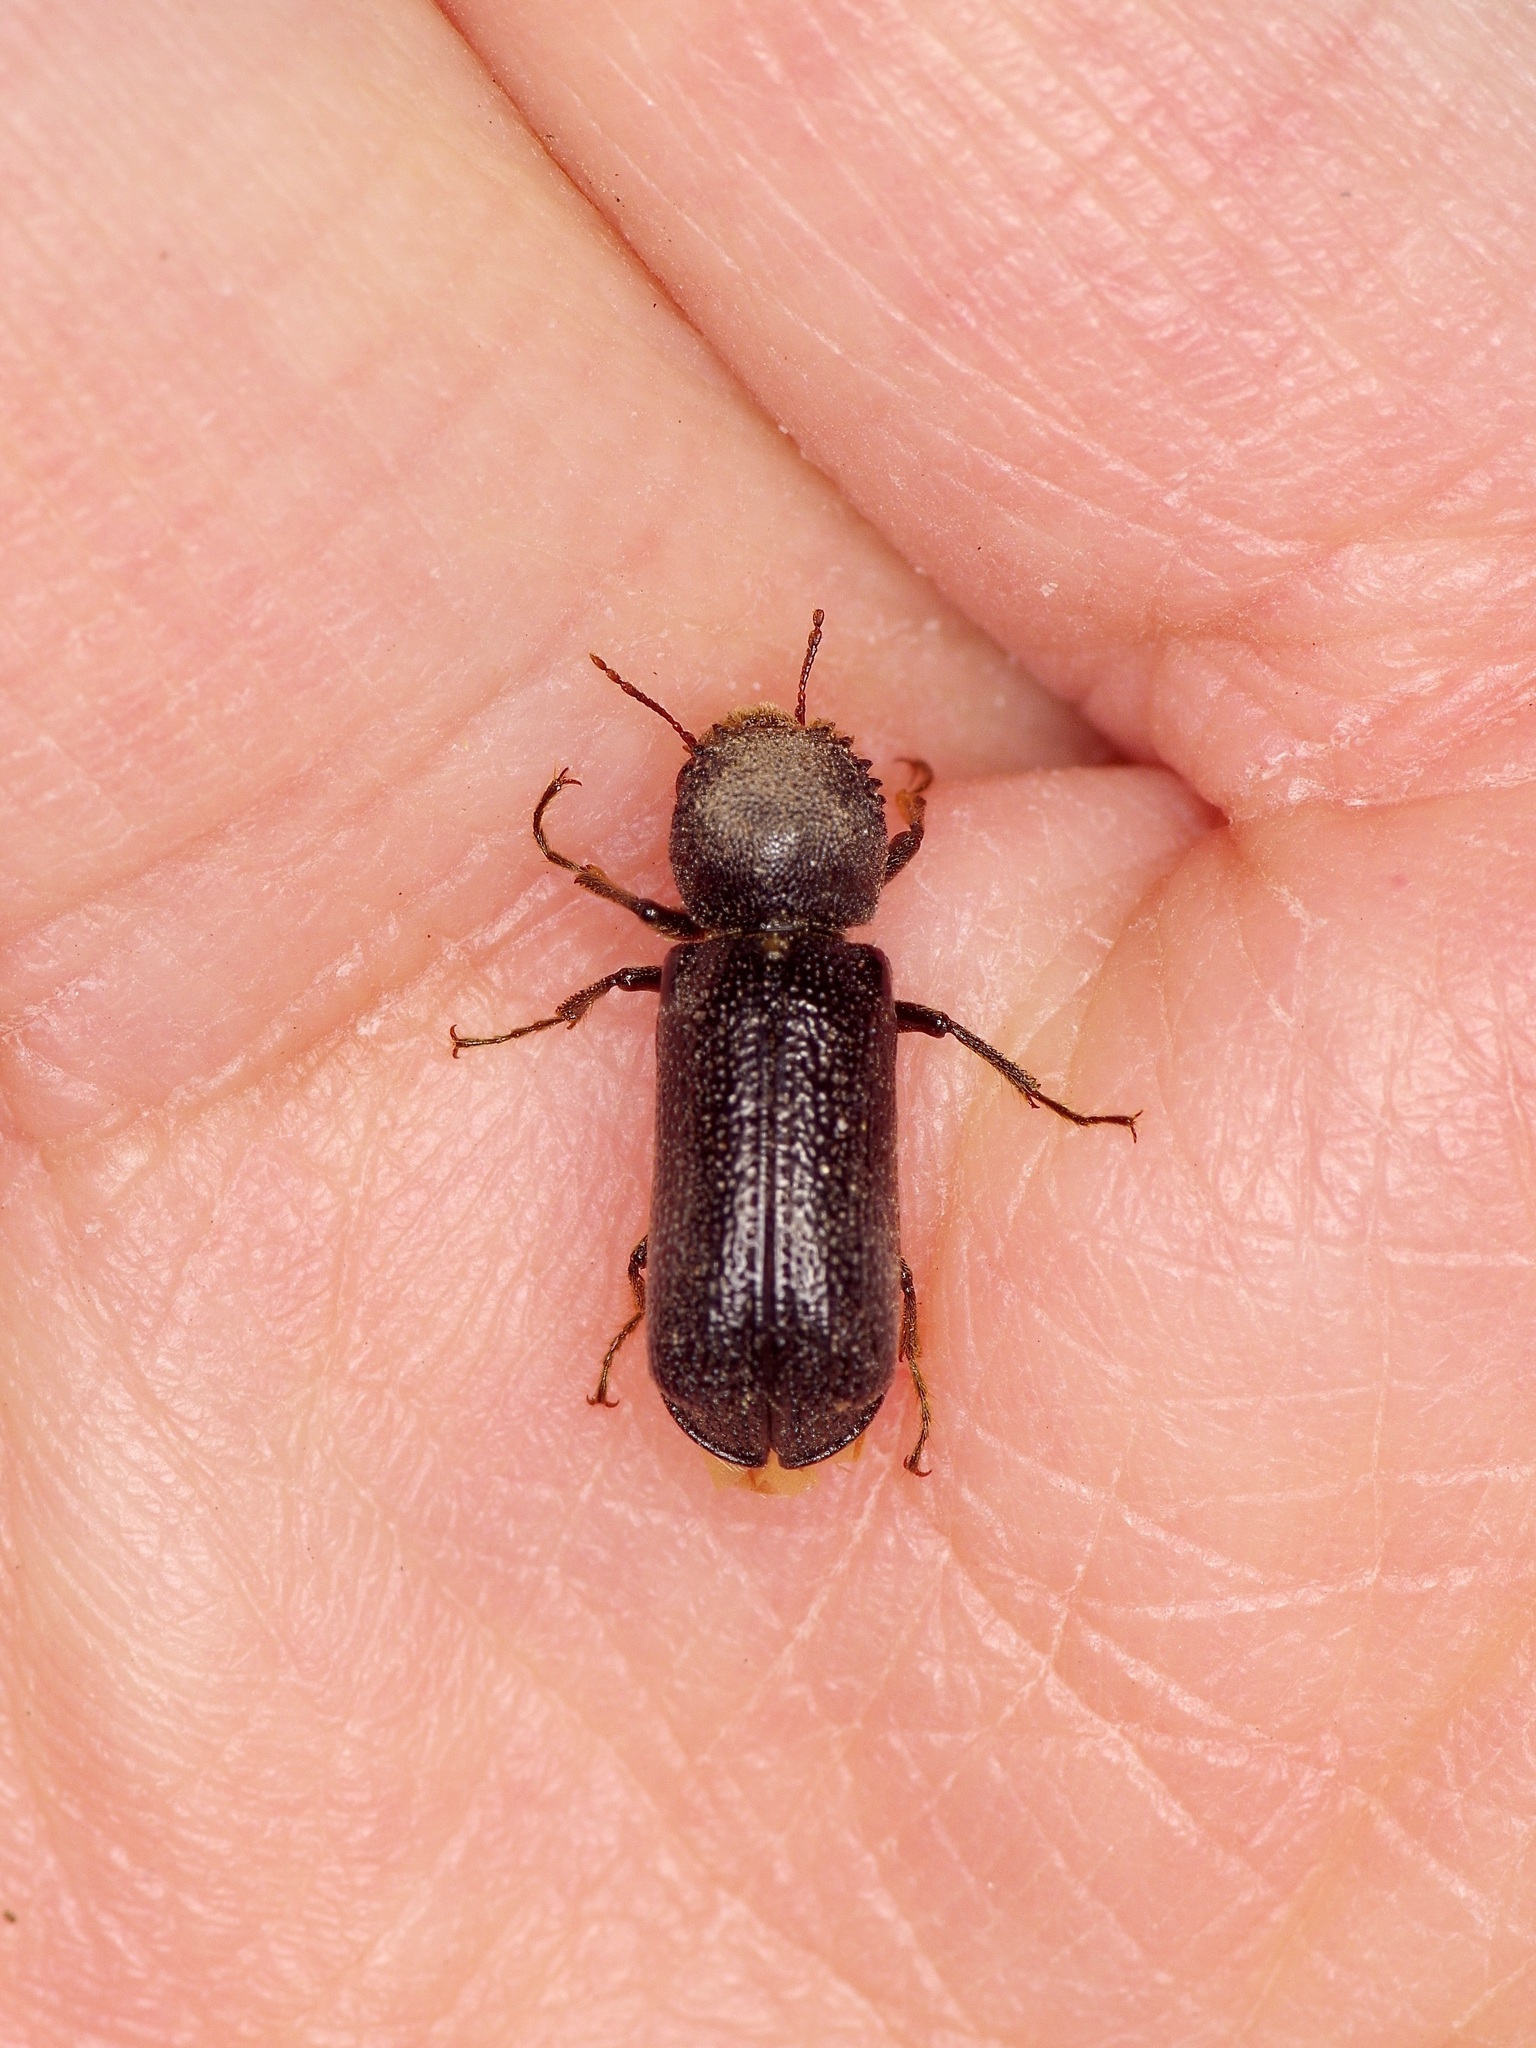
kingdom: Animalia
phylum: Arthropoda
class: Insecta
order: Coleoptera
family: Bostrichidae
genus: Amphicerus
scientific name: Amphicerus cornutus
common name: Powderpost beetle
